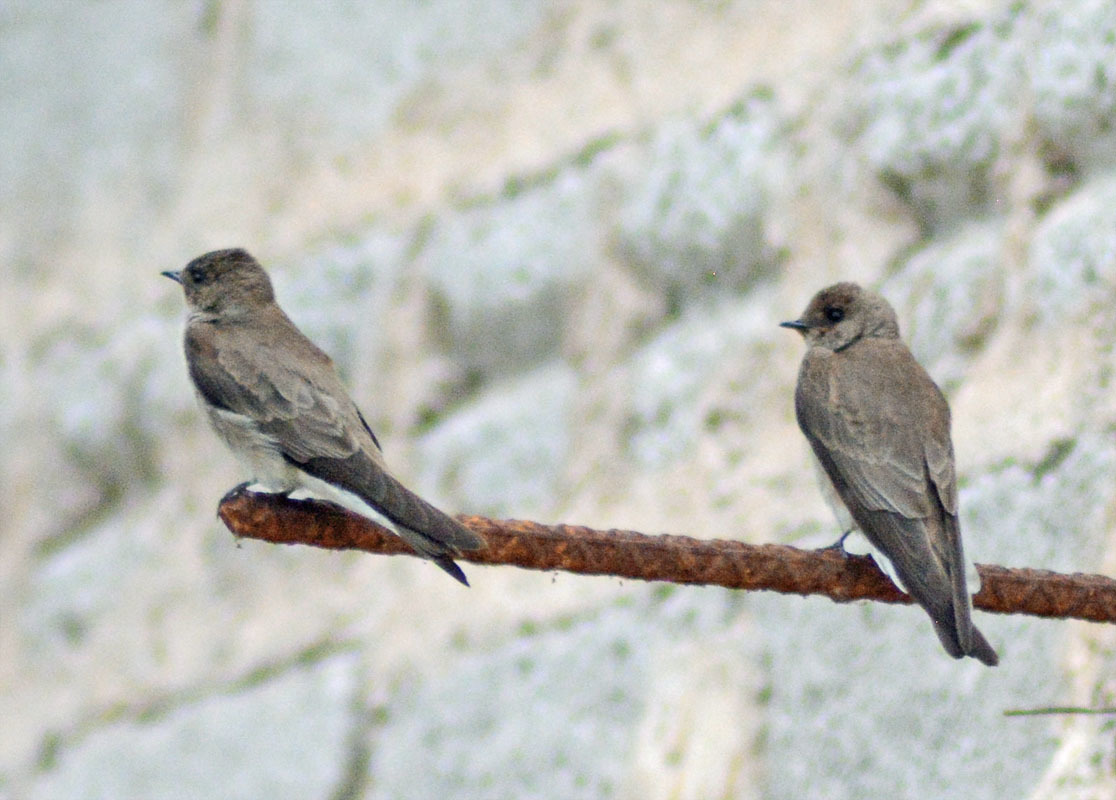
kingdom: Animalia
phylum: Chordata
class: Aves
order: Passeriformes
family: Hirundinidae
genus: Stelgidopteryx
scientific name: Stelgidopteryx serripennis
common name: Northern rough-winged swallow
